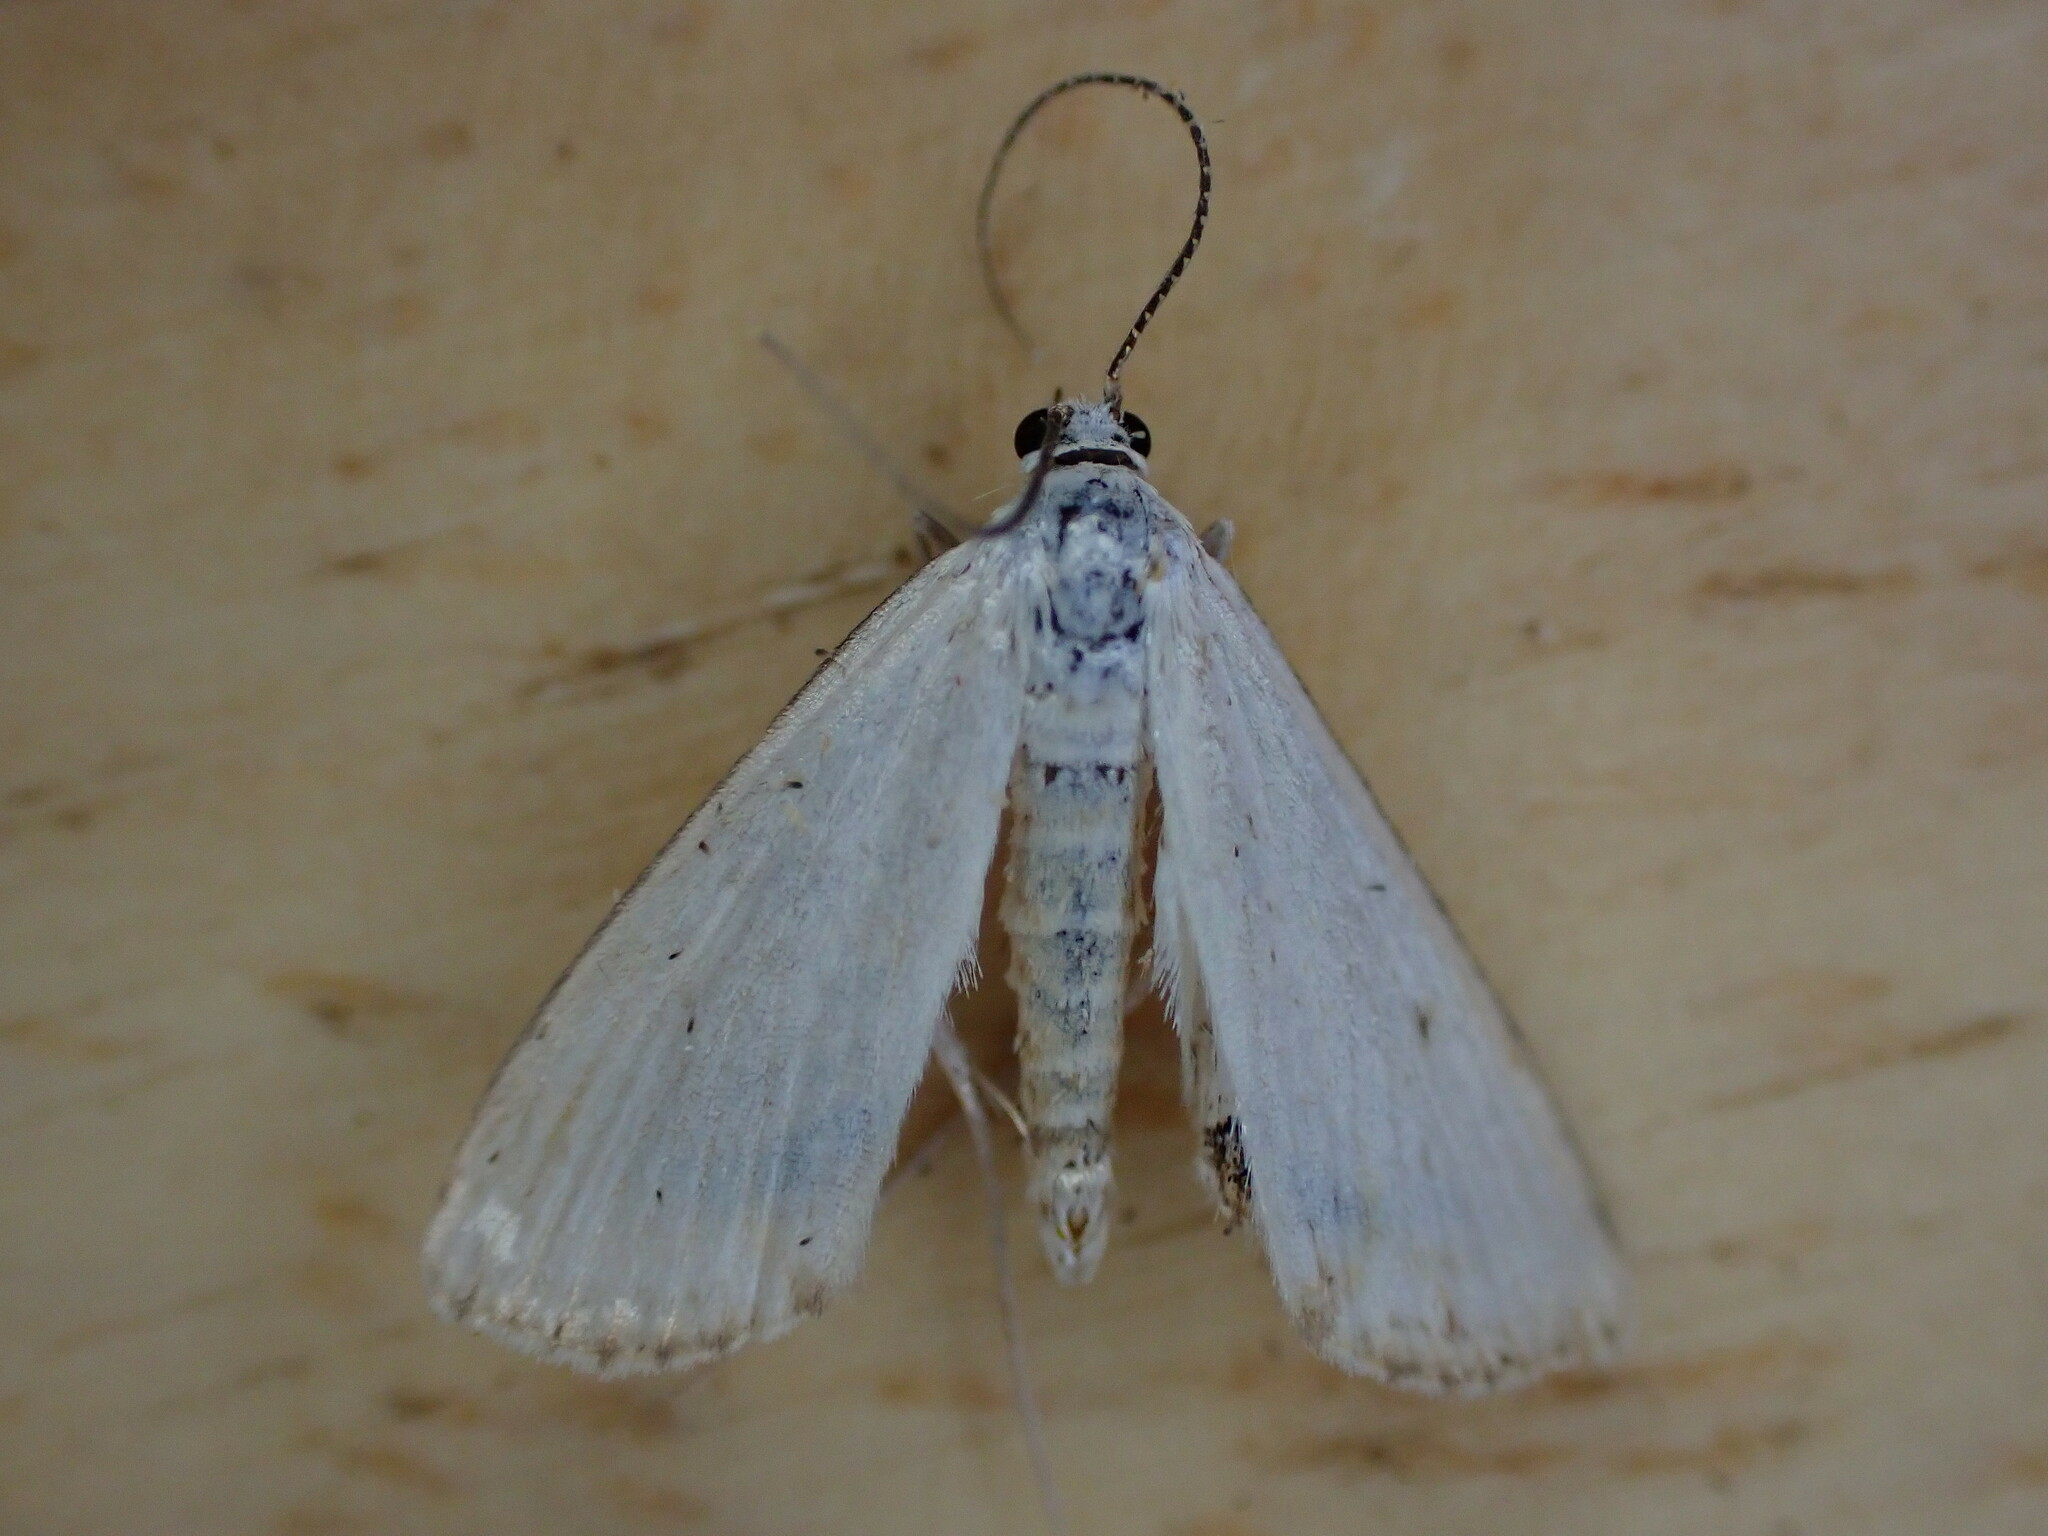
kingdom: Animalia
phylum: Arthropoda
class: Insecta
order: Lepidoptera
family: Crambidae
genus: Cataclysta
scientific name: Cataclysta lemnata
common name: Small china-mark
